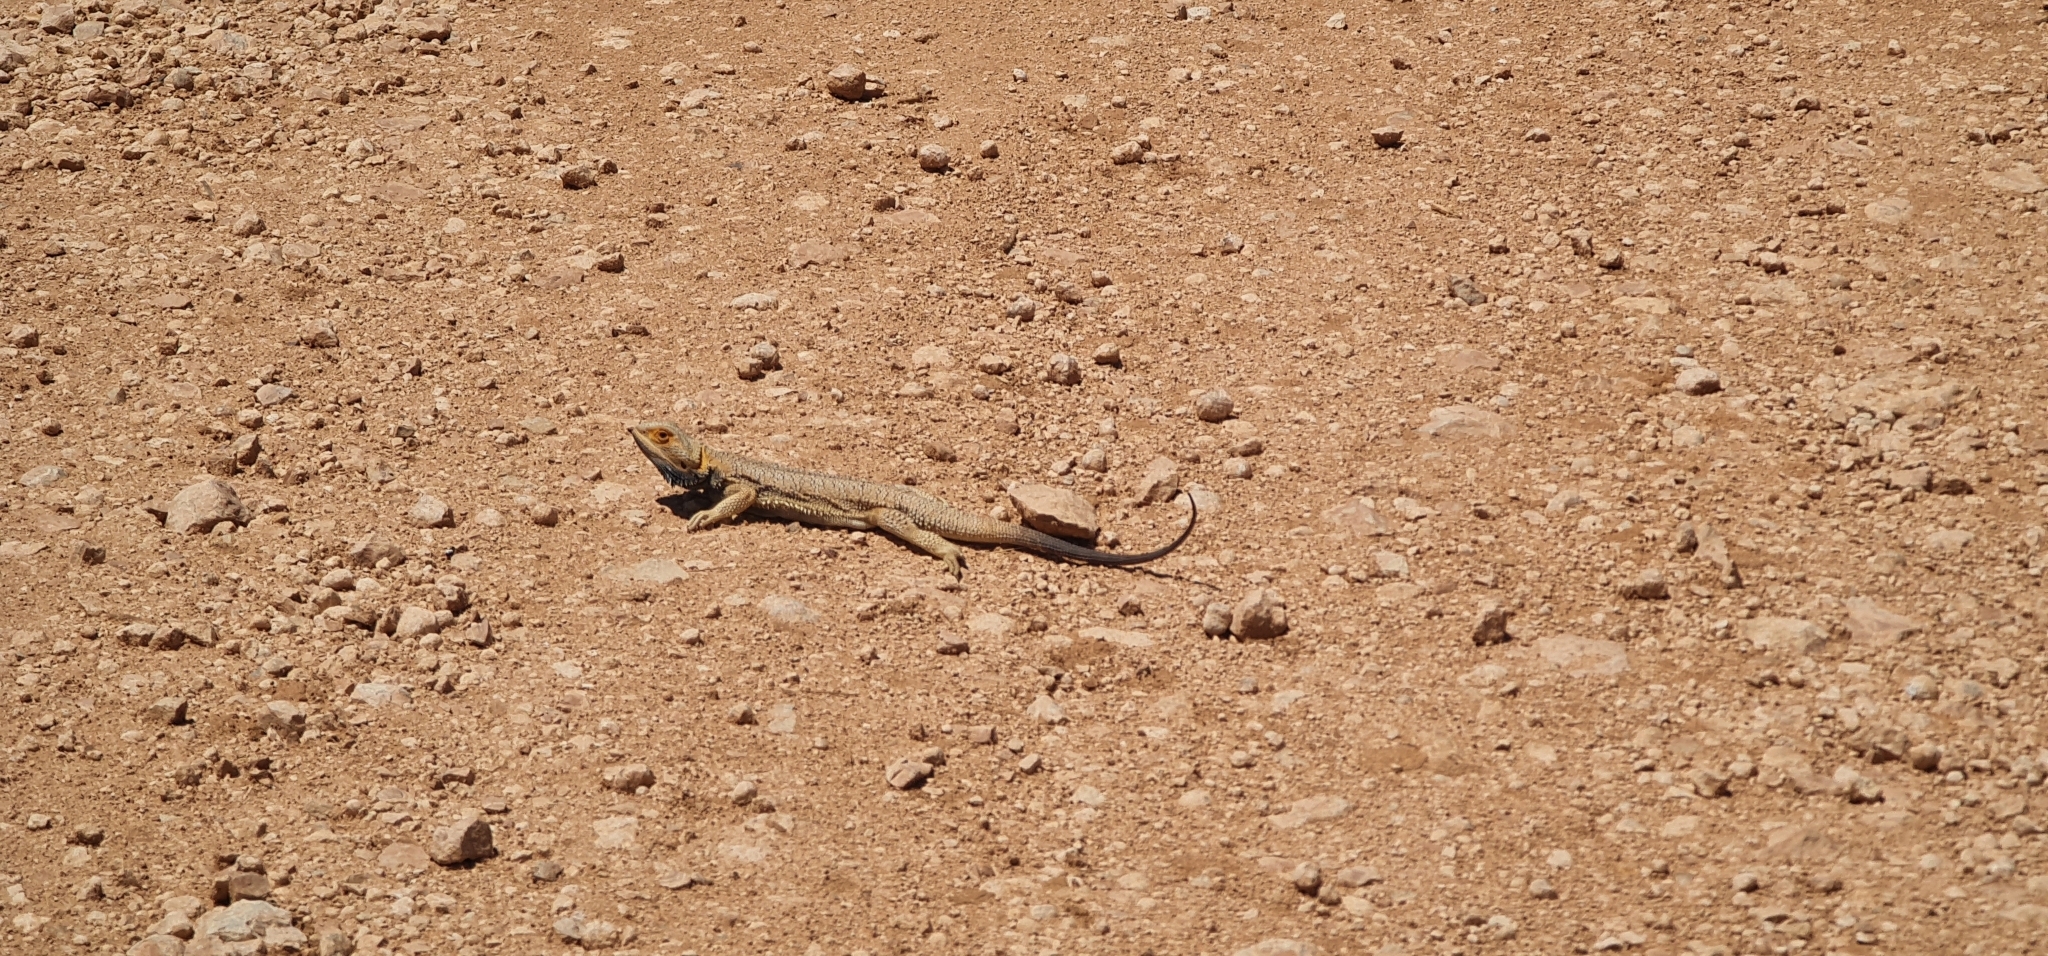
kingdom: Animalia
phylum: Chordata
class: Squamata
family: Agamidae
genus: Pogona
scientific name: Pogona vitticeps
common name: Central bearded dragon
